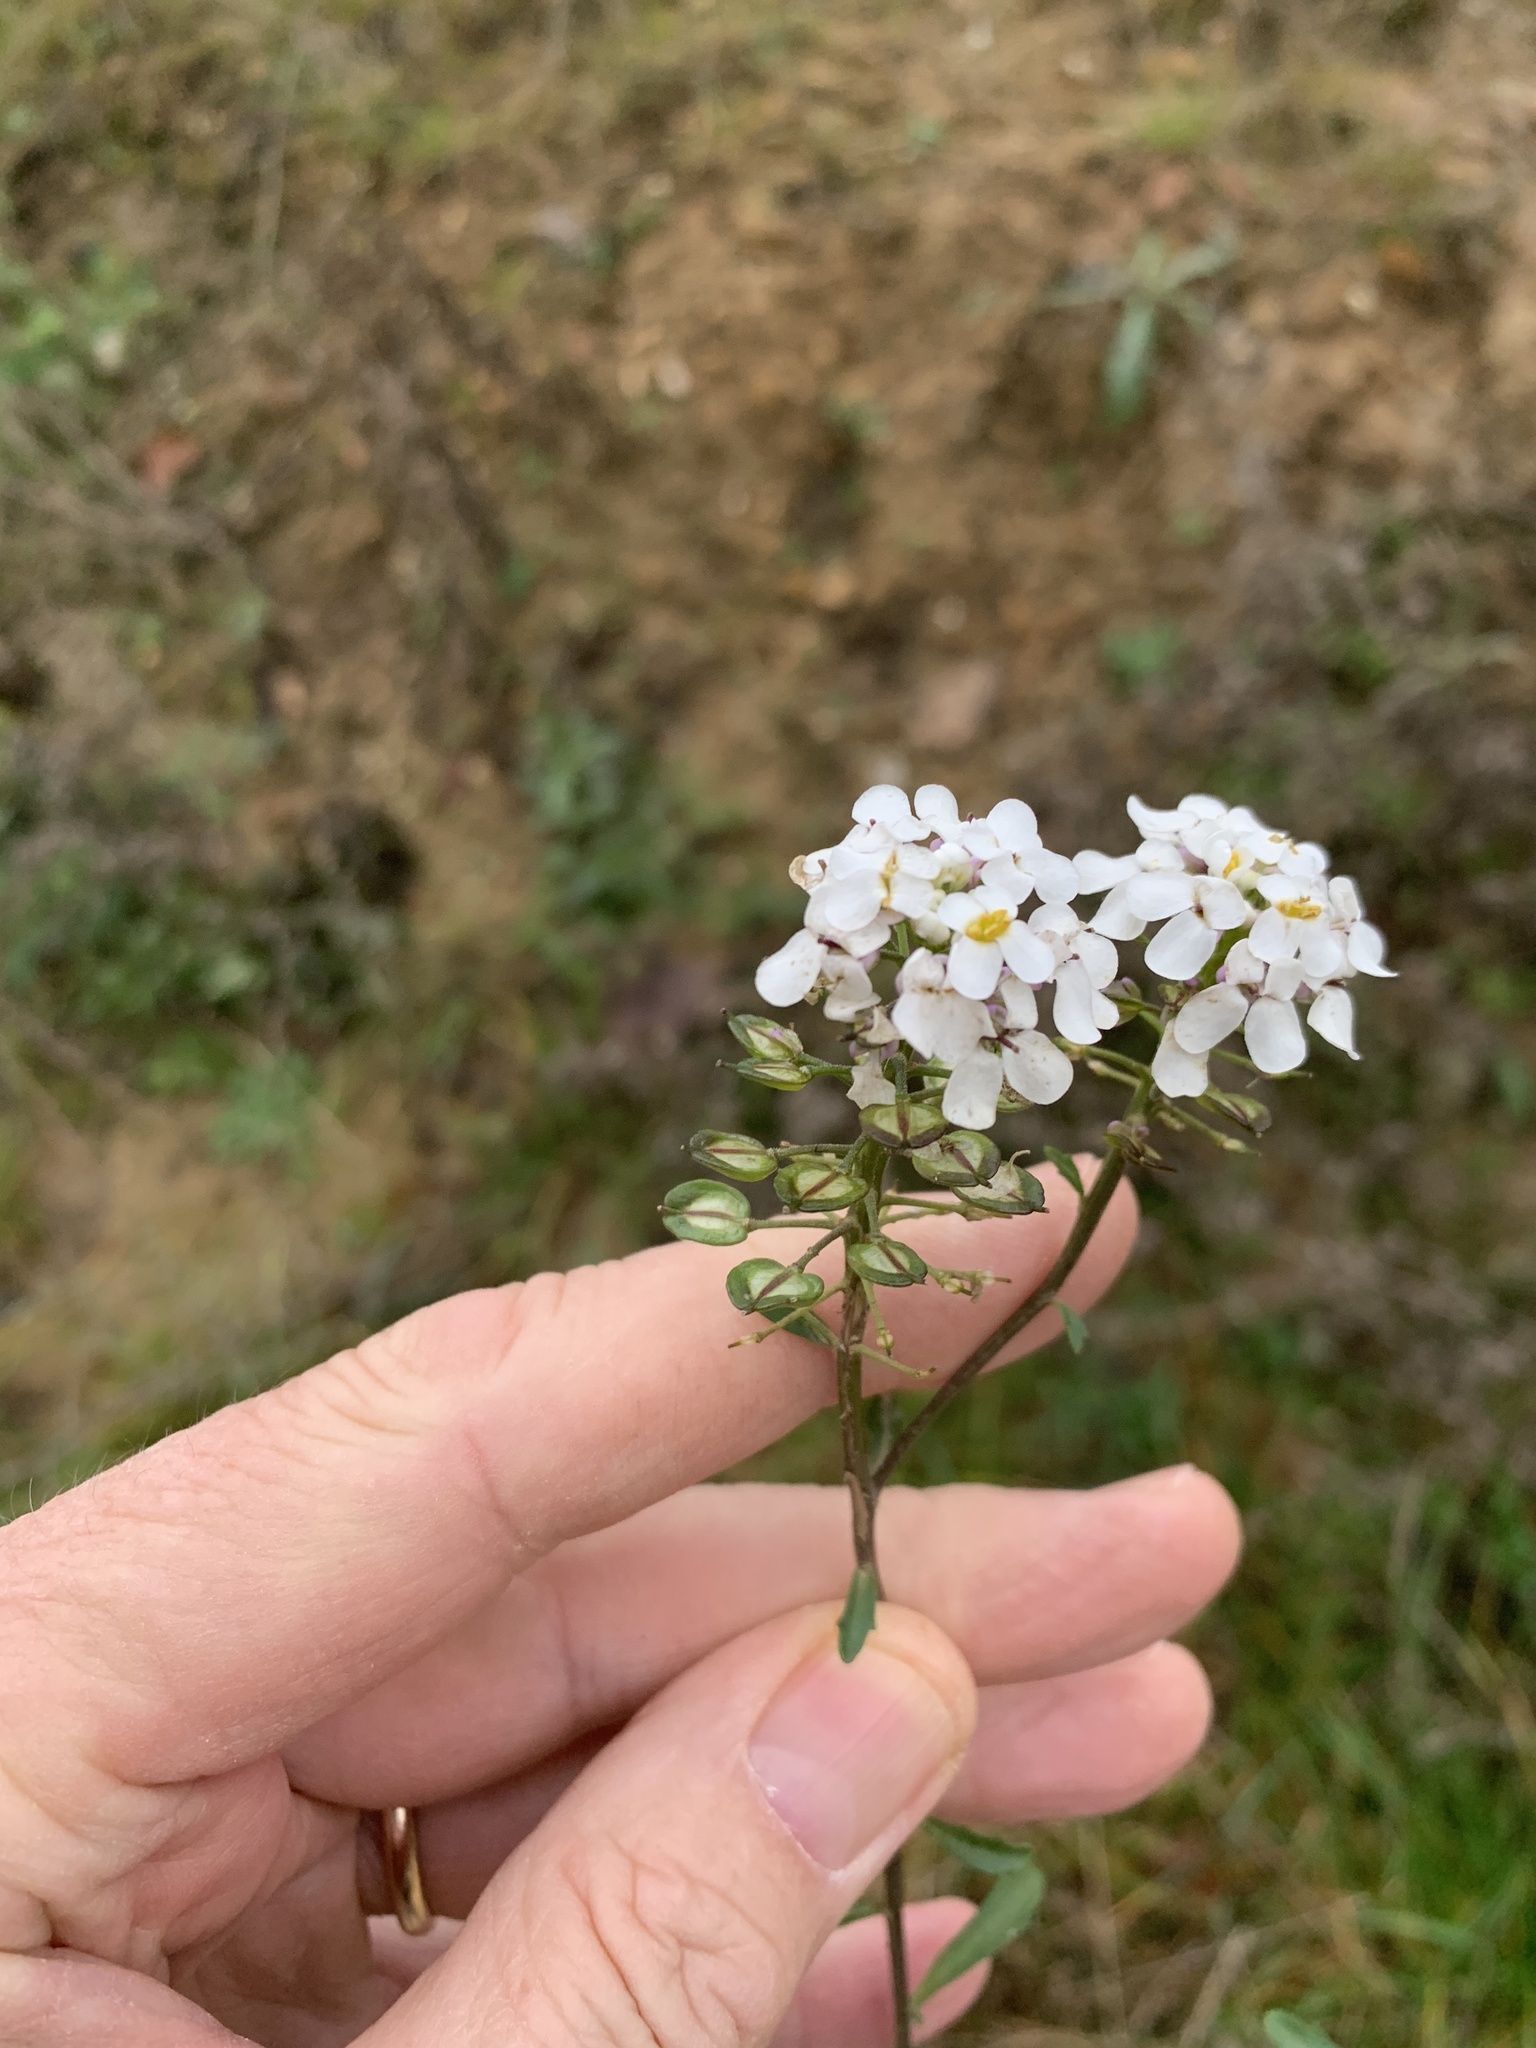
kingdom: Plantae
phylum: Tracheophyta
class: Magnoliopsida
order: Brassicales
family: Brassicaceae
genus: Iberis
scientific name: Iberis amara
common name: Annual candytuft
